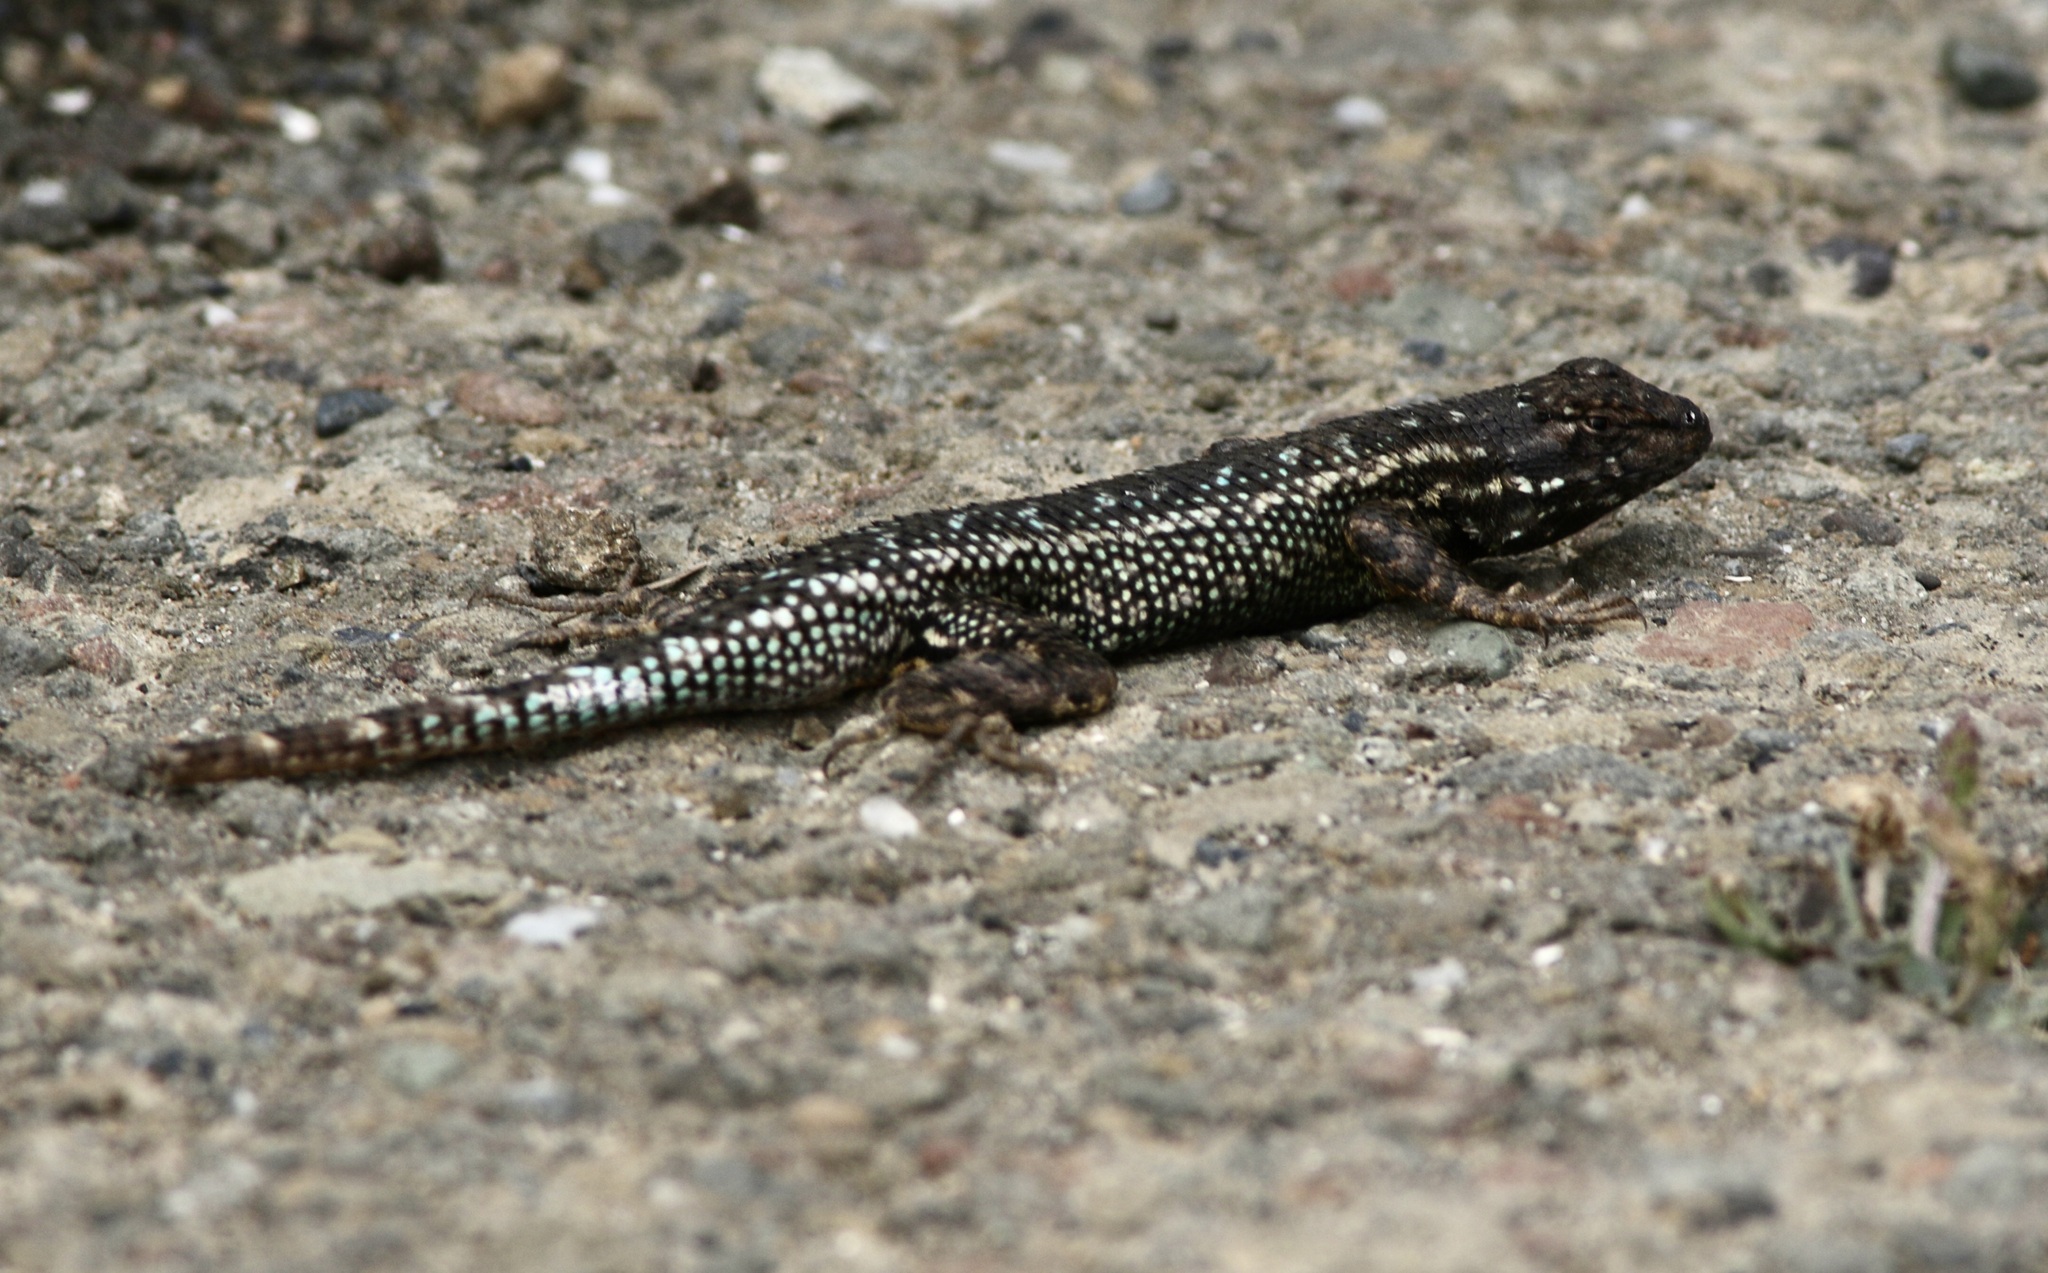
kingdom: Animalia
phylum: Chordata
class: Squamata
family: Phrynosomatidae
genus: Sceloporus
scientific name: Sceloporus occidentalis
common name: Western fence lizard
